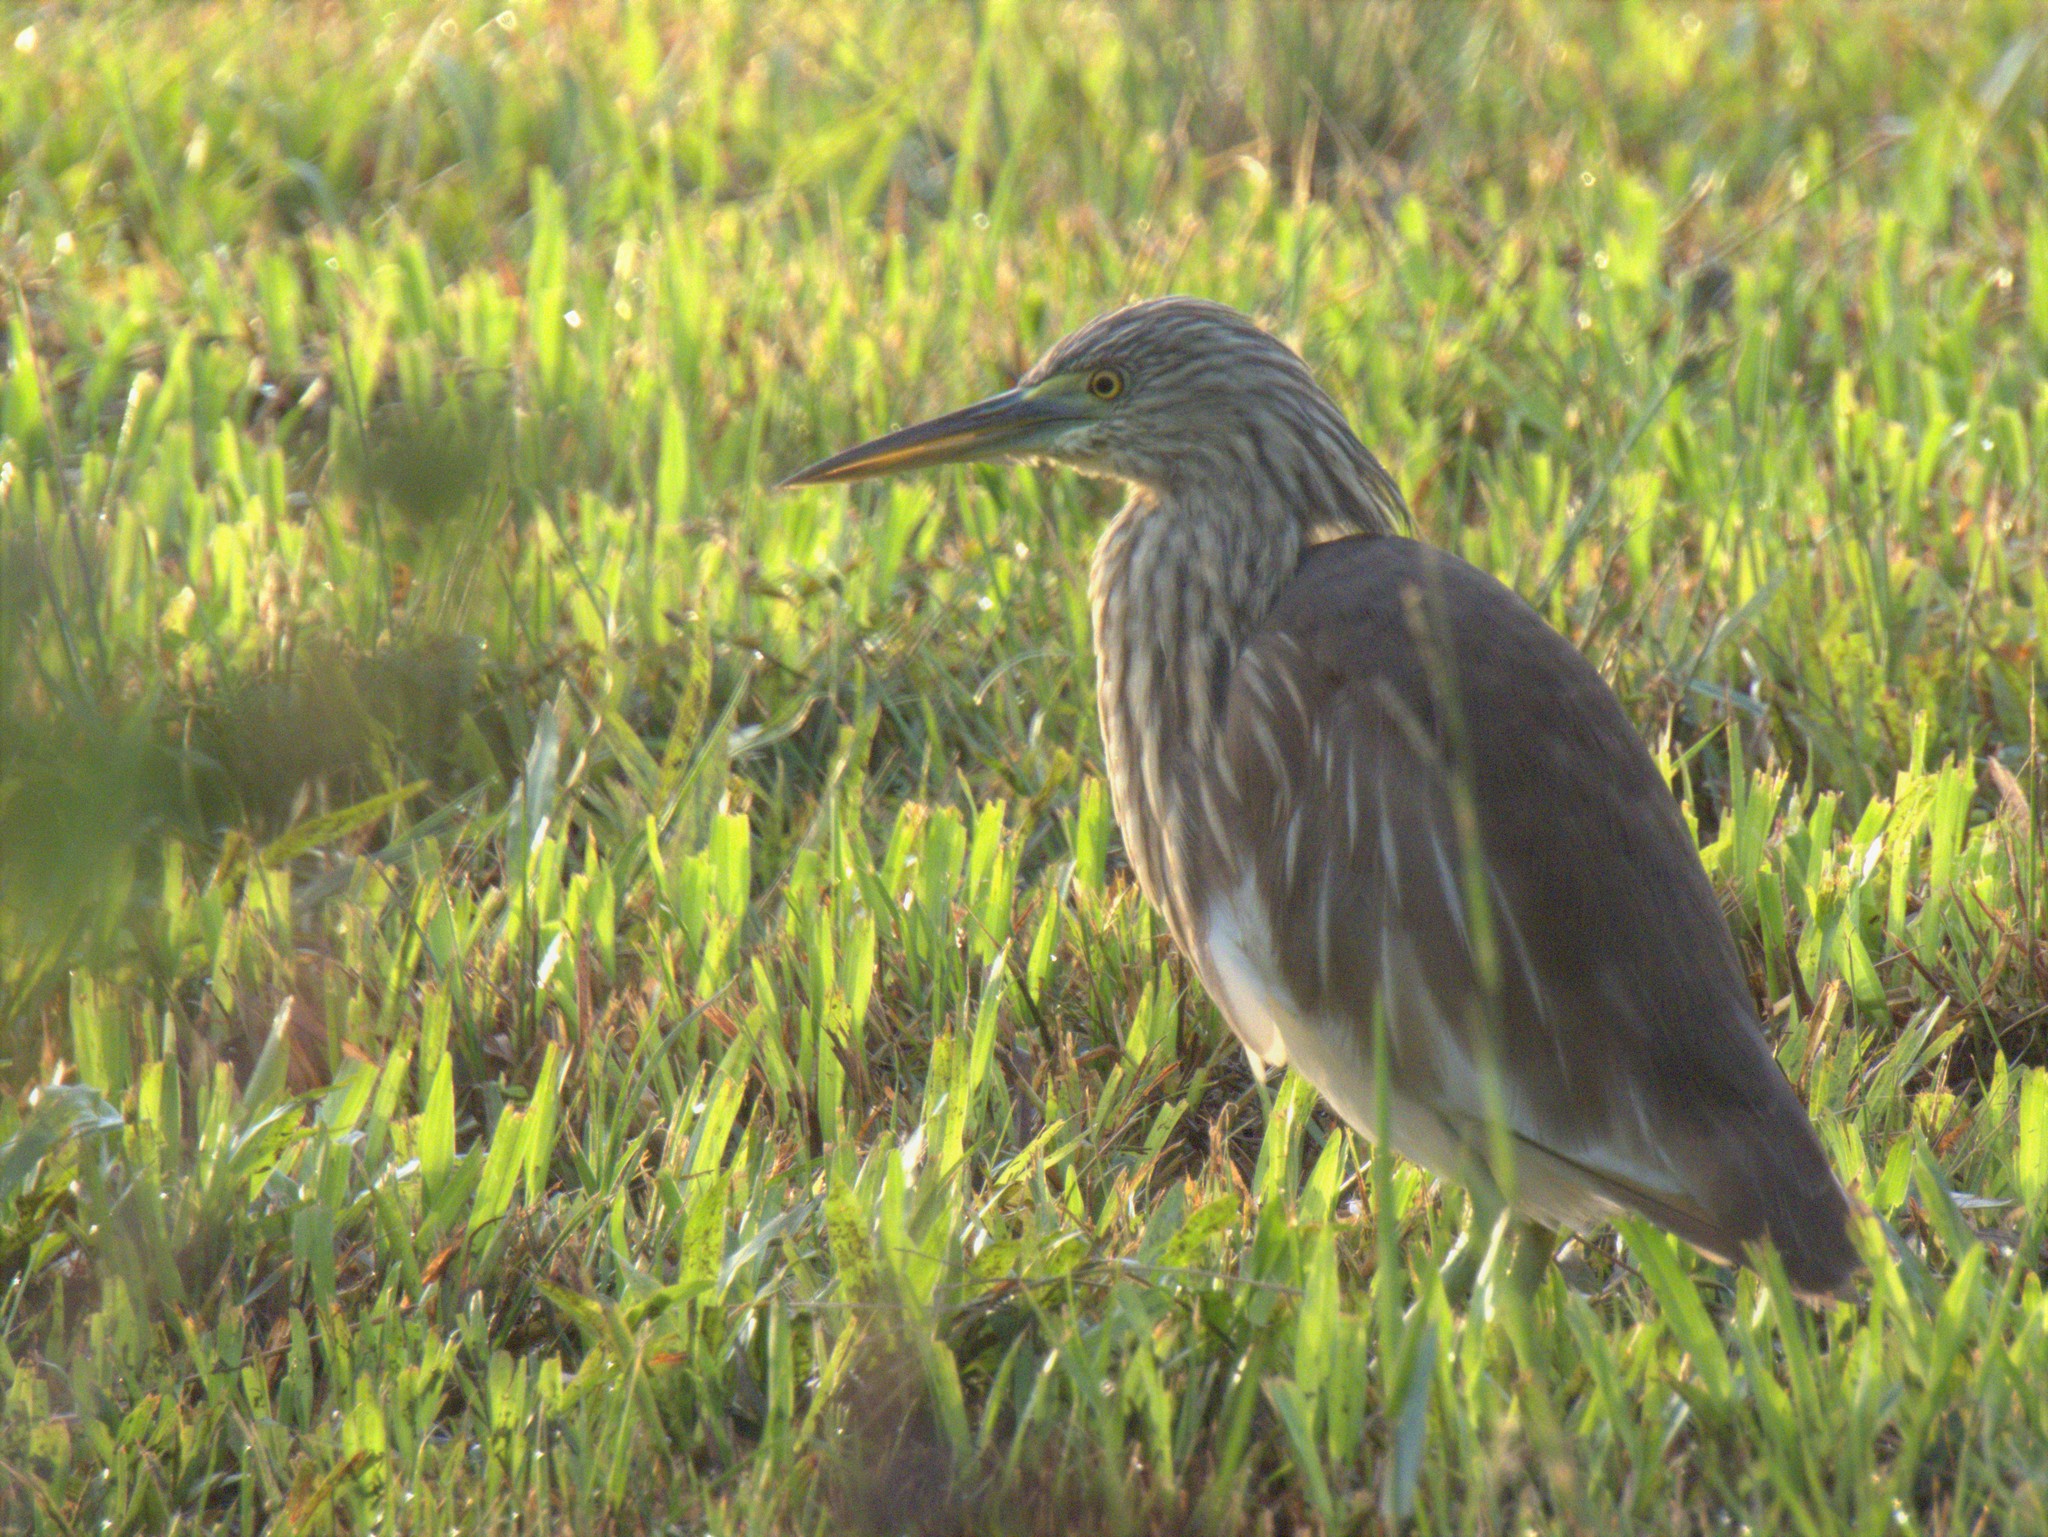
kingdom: Animalia
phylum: Chordata
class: Aves
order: Pelecaniformes
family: Ardeidae
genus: Ardeola
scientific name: Ardeola
